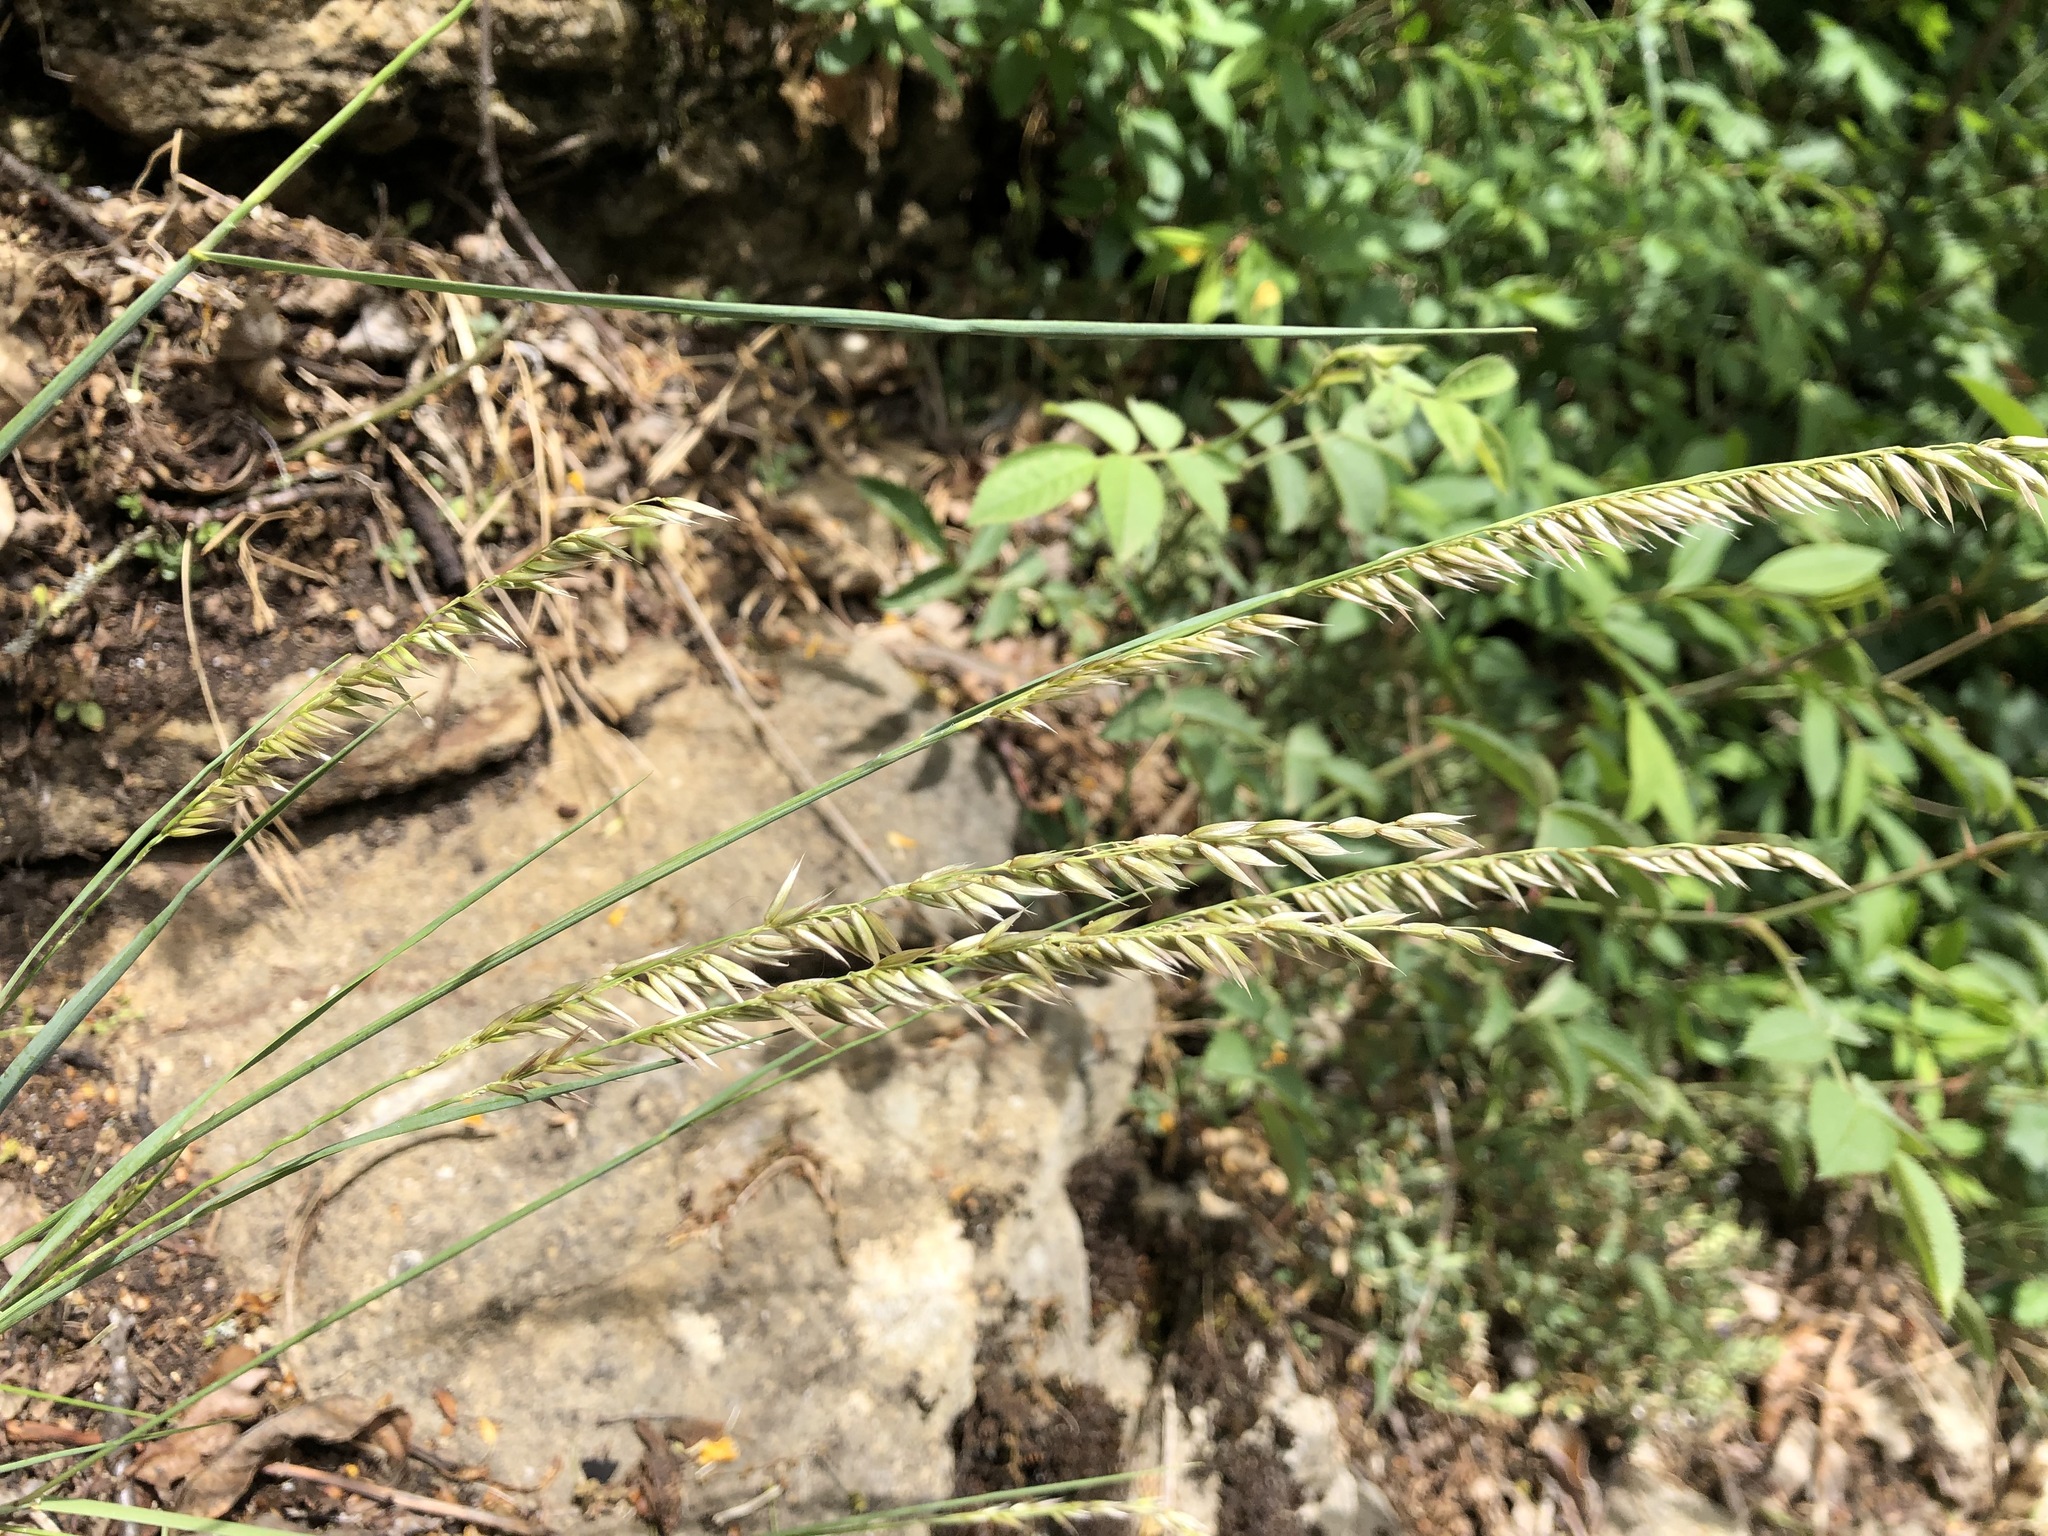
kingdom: Plantae
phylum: Tracheophyta
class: Liliopsida
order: Poales
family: Poaceae
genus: Melica
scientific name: Melica ciliata
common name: Hairy melicgrass
